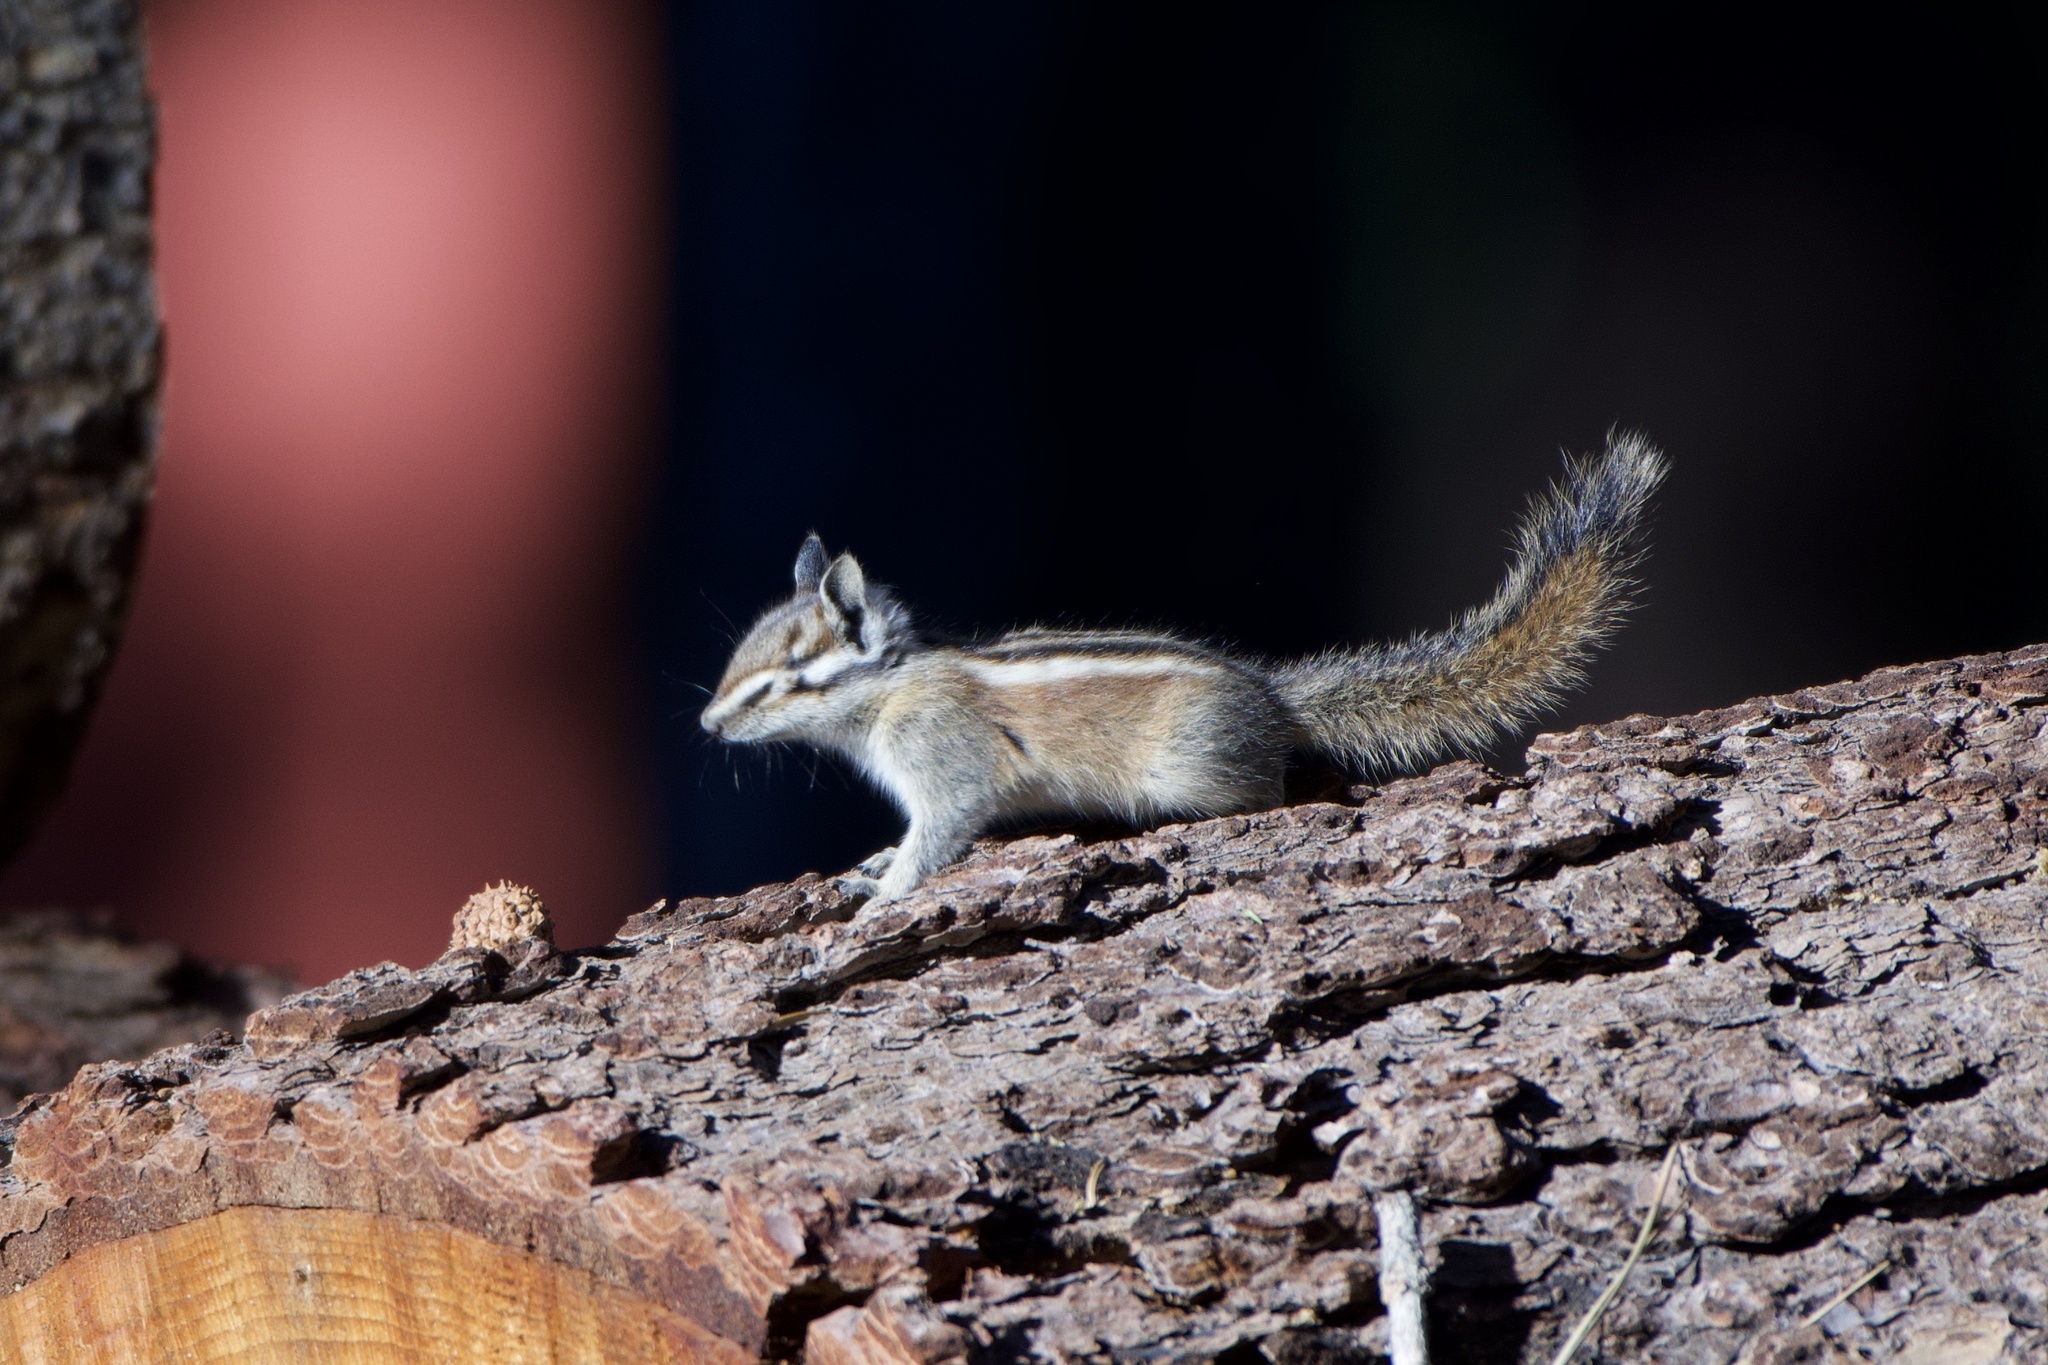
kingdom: Animalia
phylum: Chordata
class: Mammalia
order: Rodentia
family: Sciuridae
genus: Tamias
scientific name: Tamias speciosus
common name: Lodgepole chipmunk
